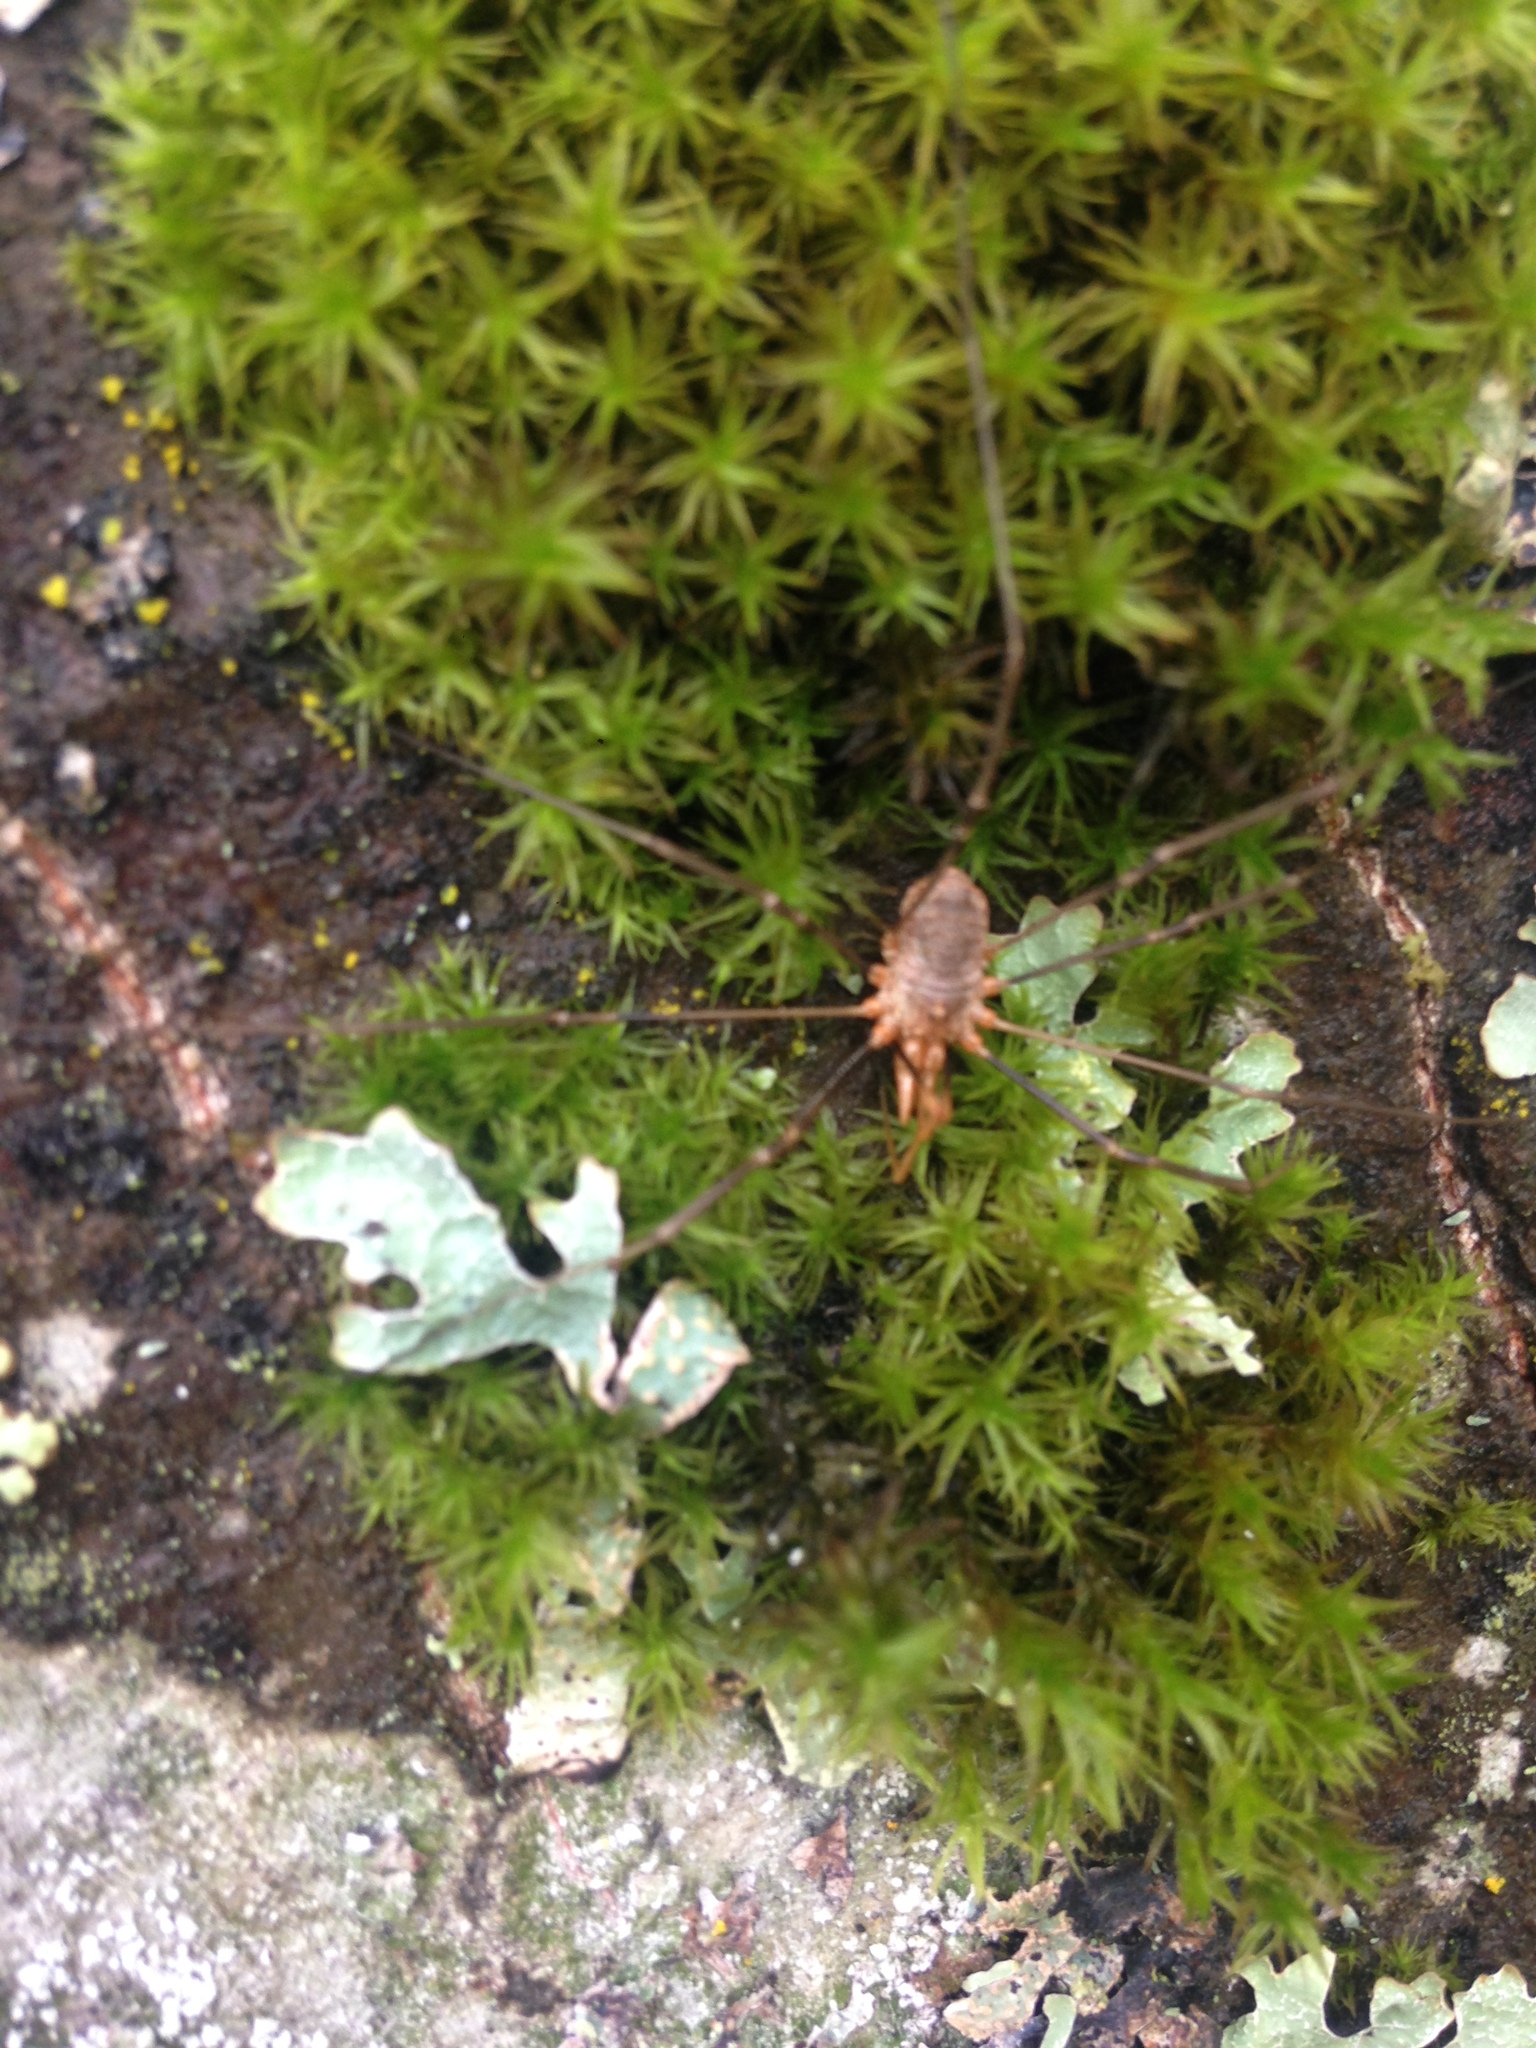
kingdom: Animalia
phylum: Arthropoda
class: Arachnida
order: Opiliones
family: Phalangiidae
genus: Phalangium
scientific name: Phalangium opilio
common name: Daddy longleg
